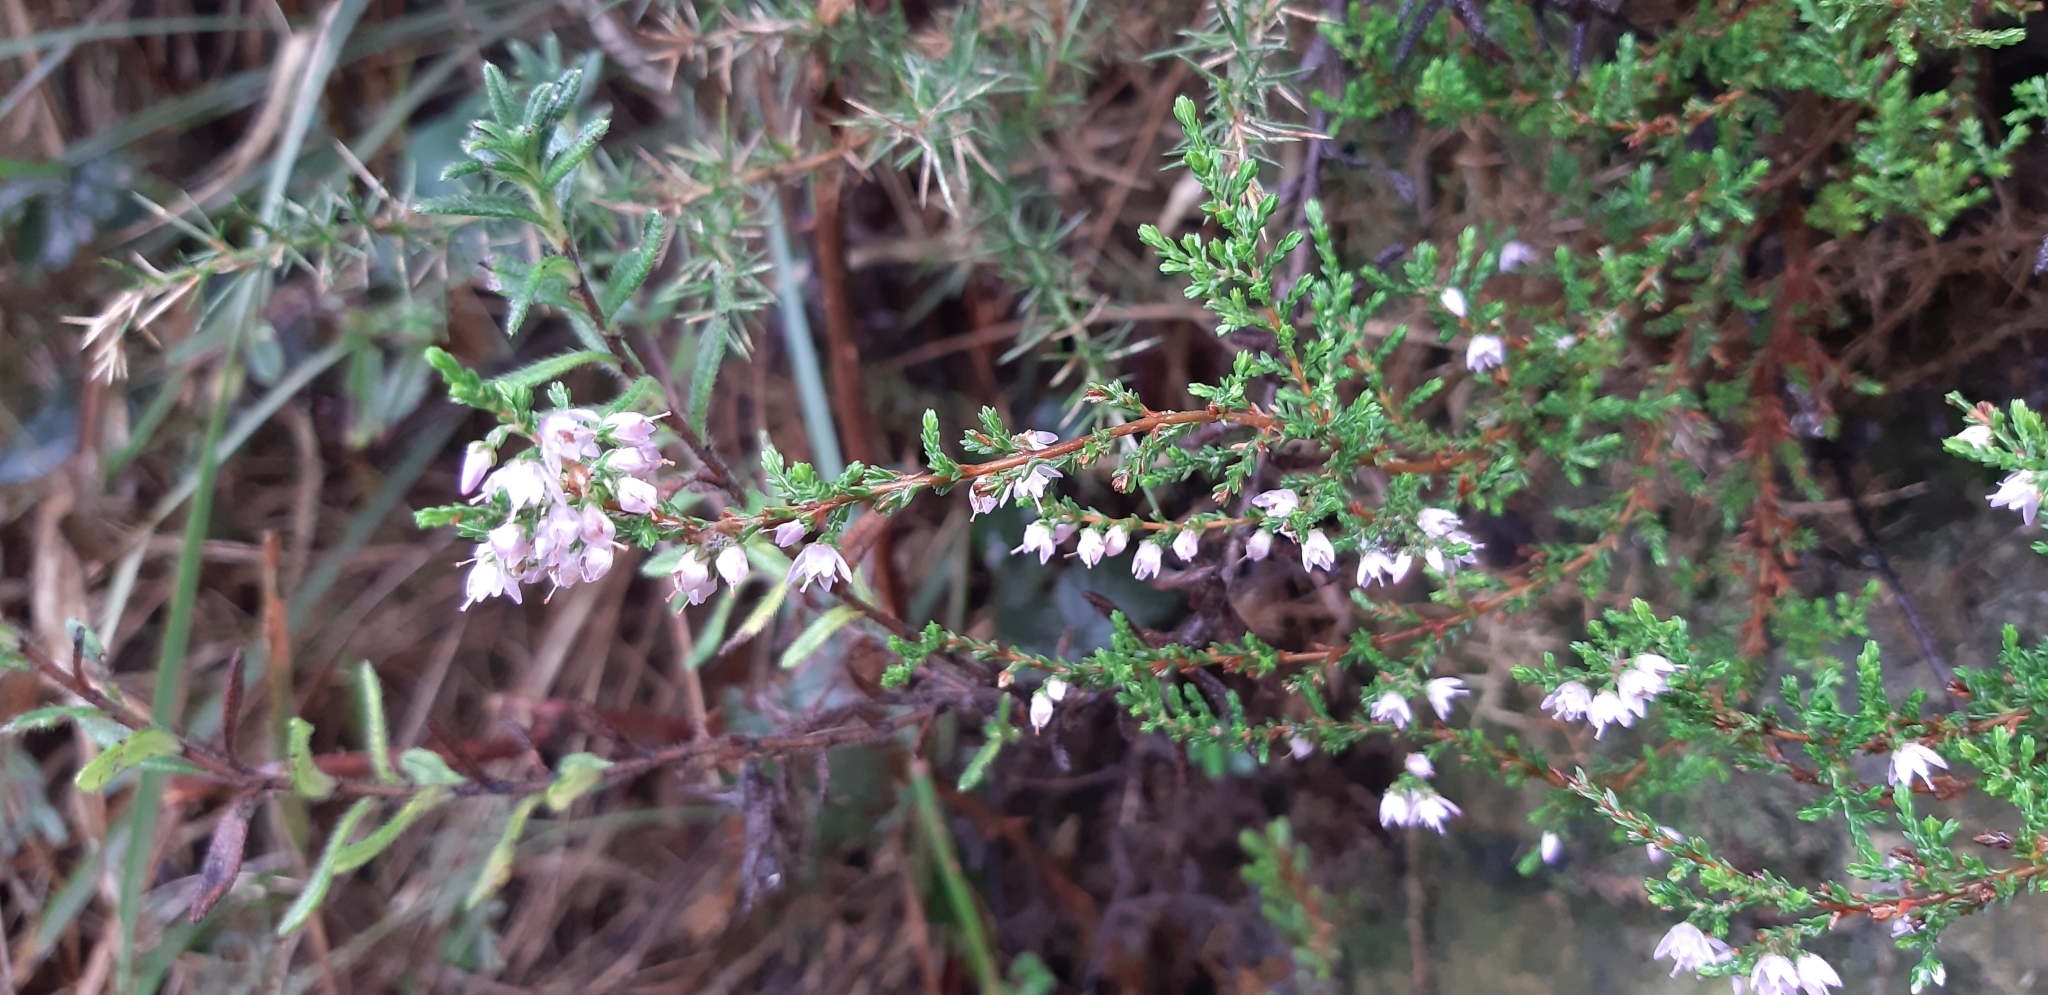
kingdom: Plantae
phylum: Tracheophyta
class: Magnoliopsida
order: Ericales
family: Ericaceae
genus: Calluna
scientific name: Calluna vulgaris
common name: Heather
